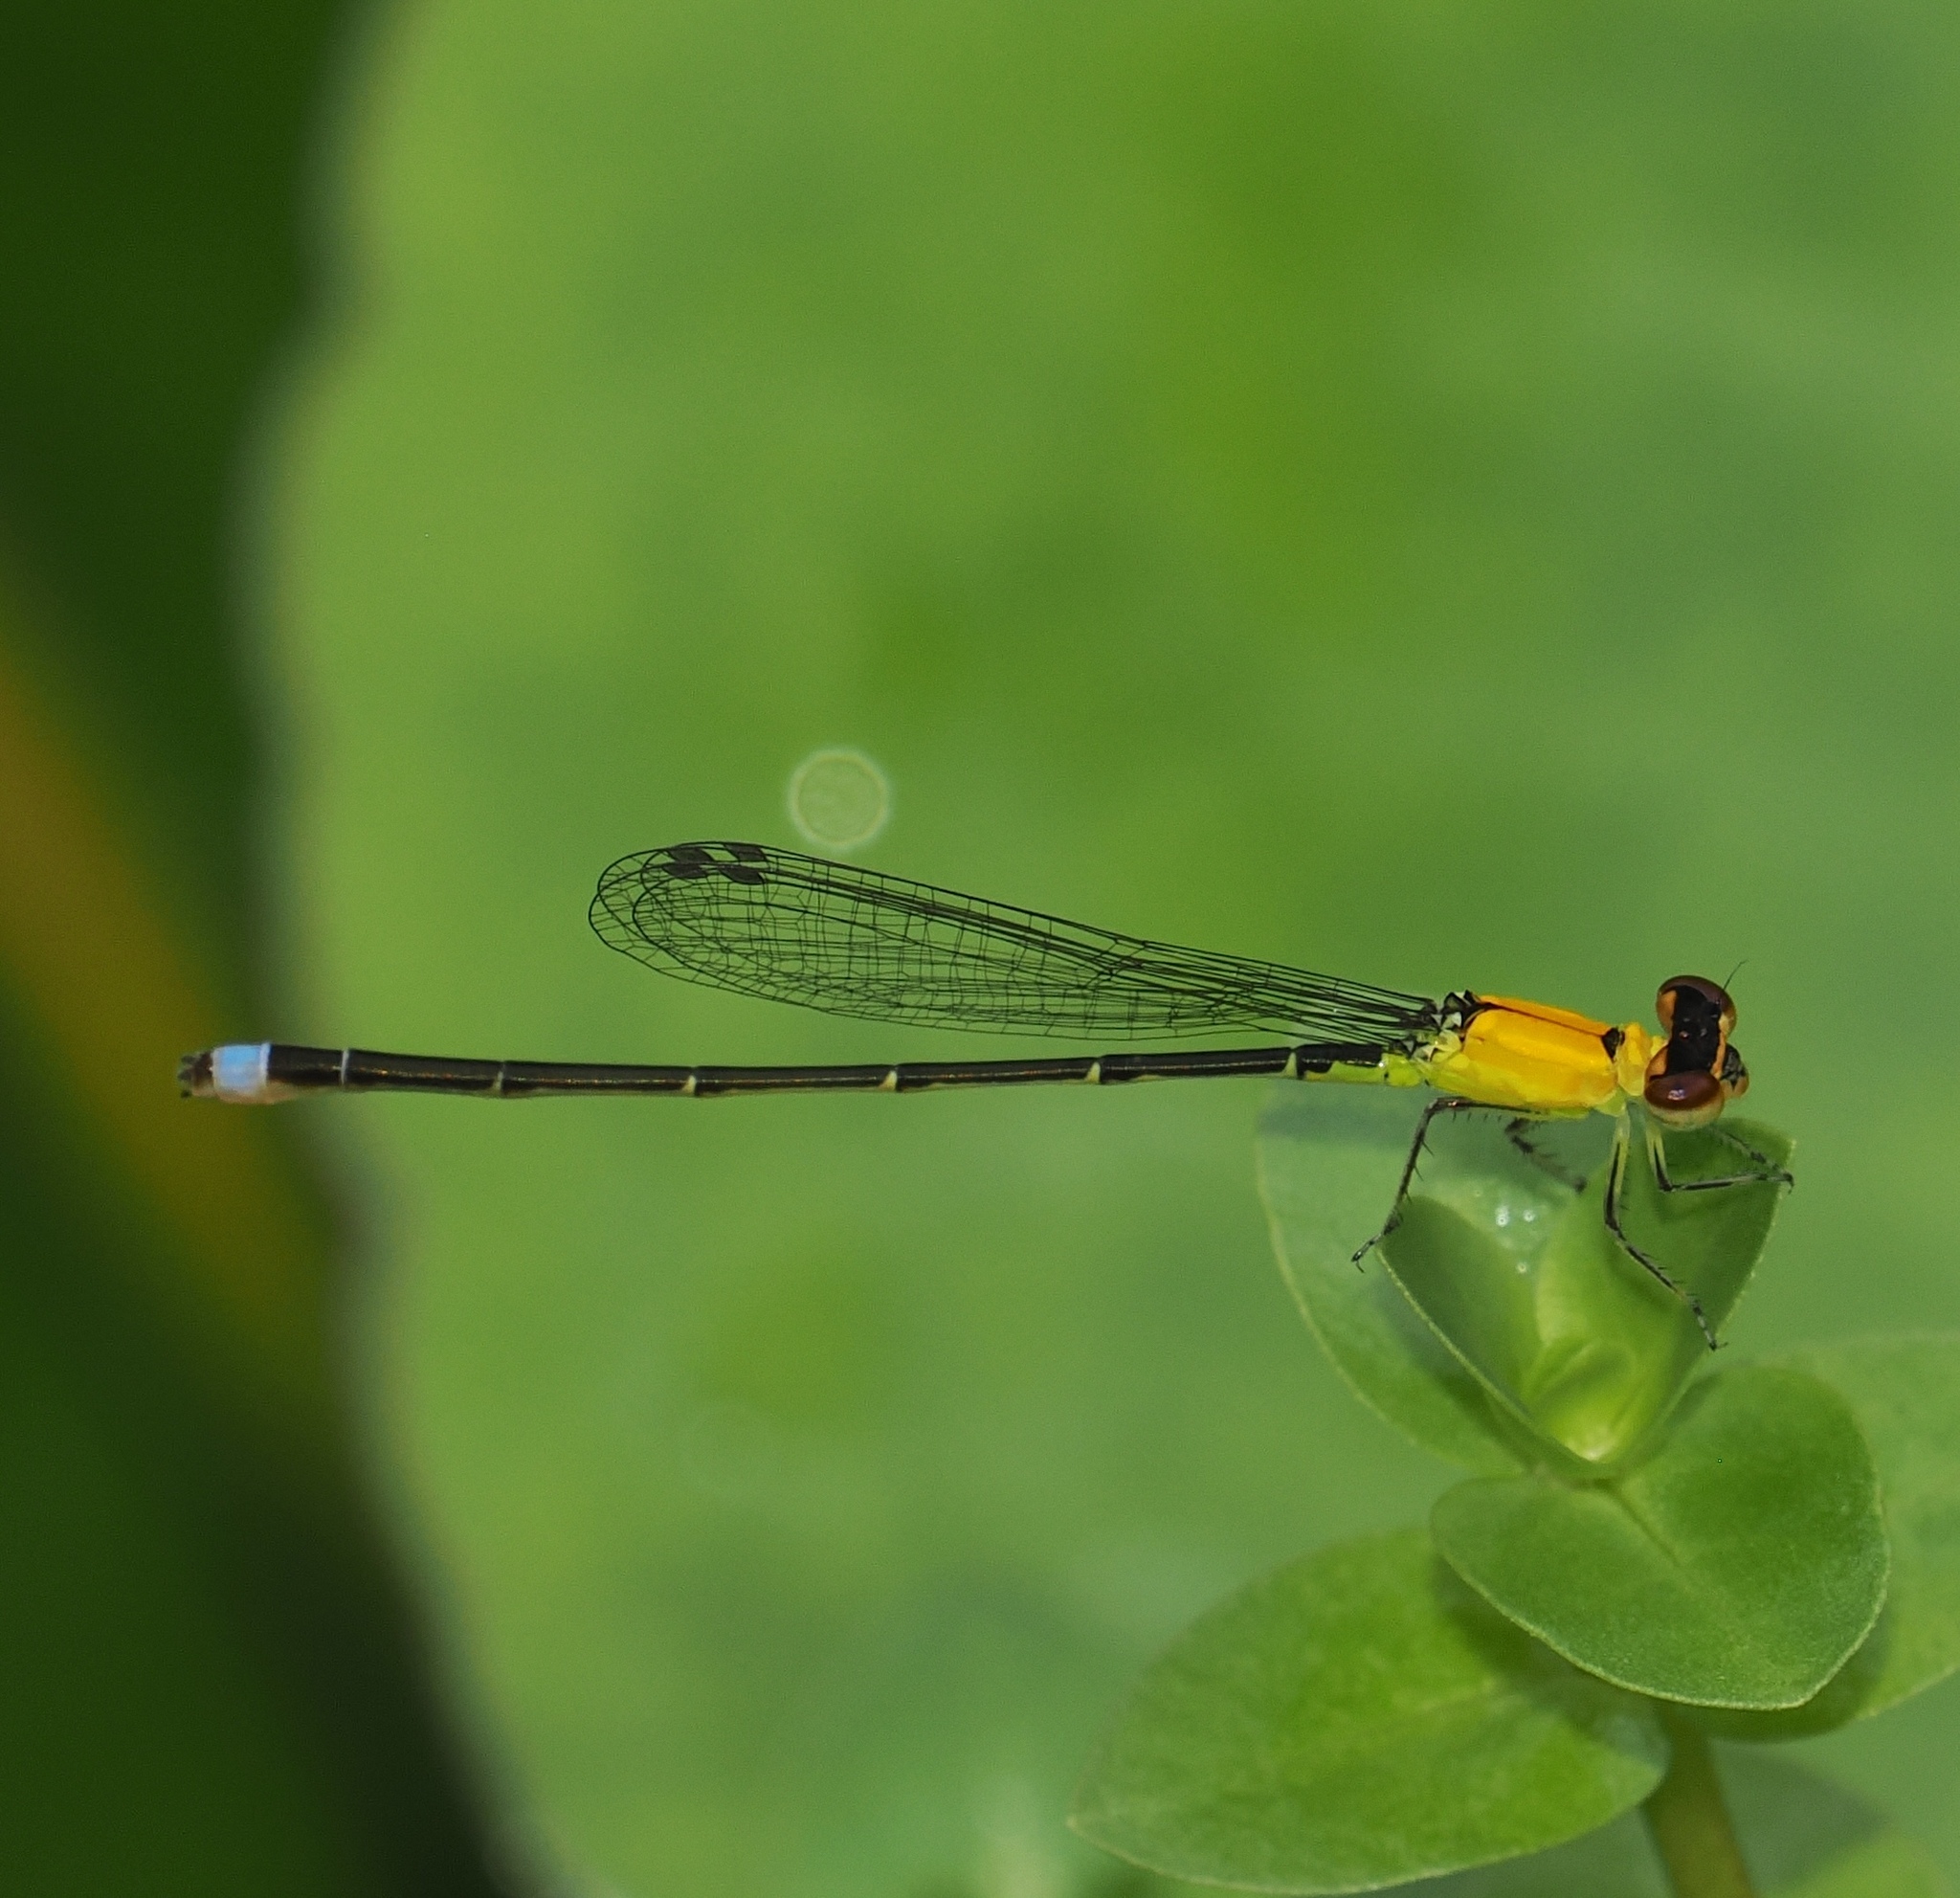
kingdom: Animalia
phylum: Arthropoda
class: Insecta
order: Odonata
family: Coenagrionidae
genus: Ischnura
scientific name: Ischnura capreolus
